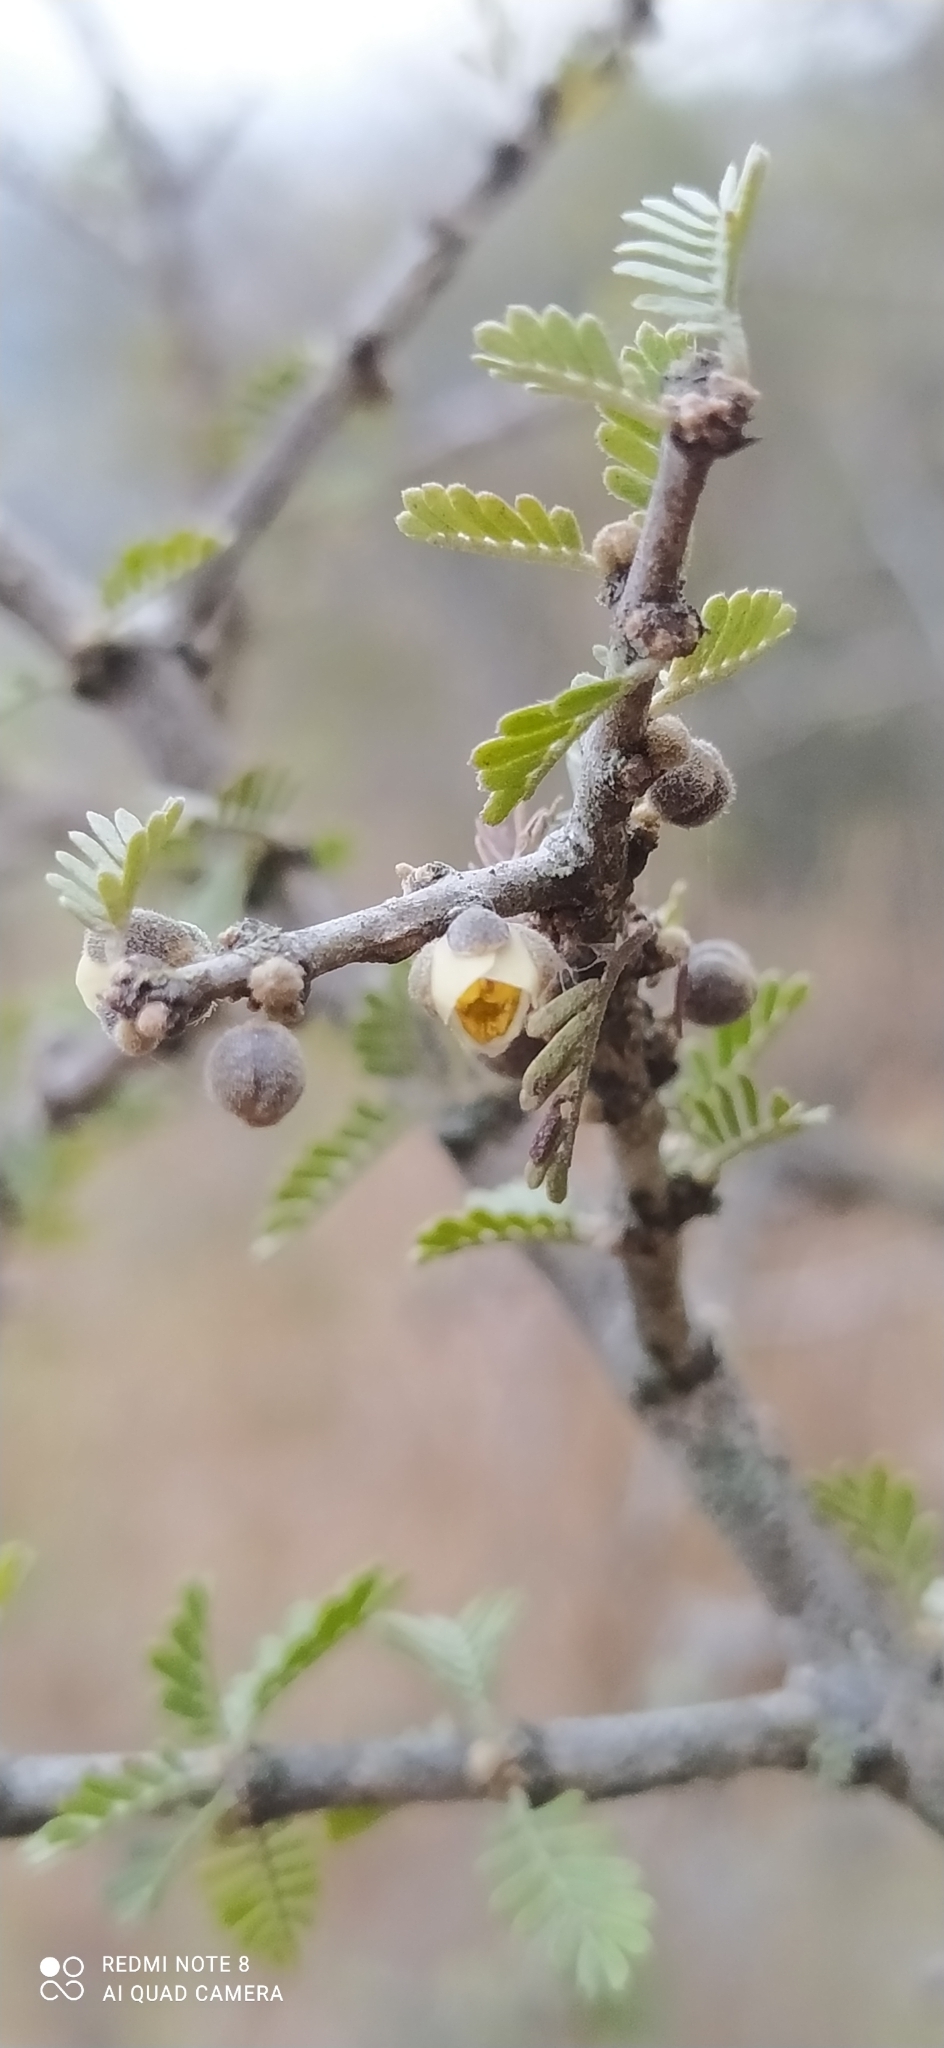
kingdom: Plantae
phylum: Tracheophyta
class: Magnoliopsida
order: Zygophyllales
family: Zygophyllaceae
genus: Porlieria
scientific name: Porlieria microphylla
